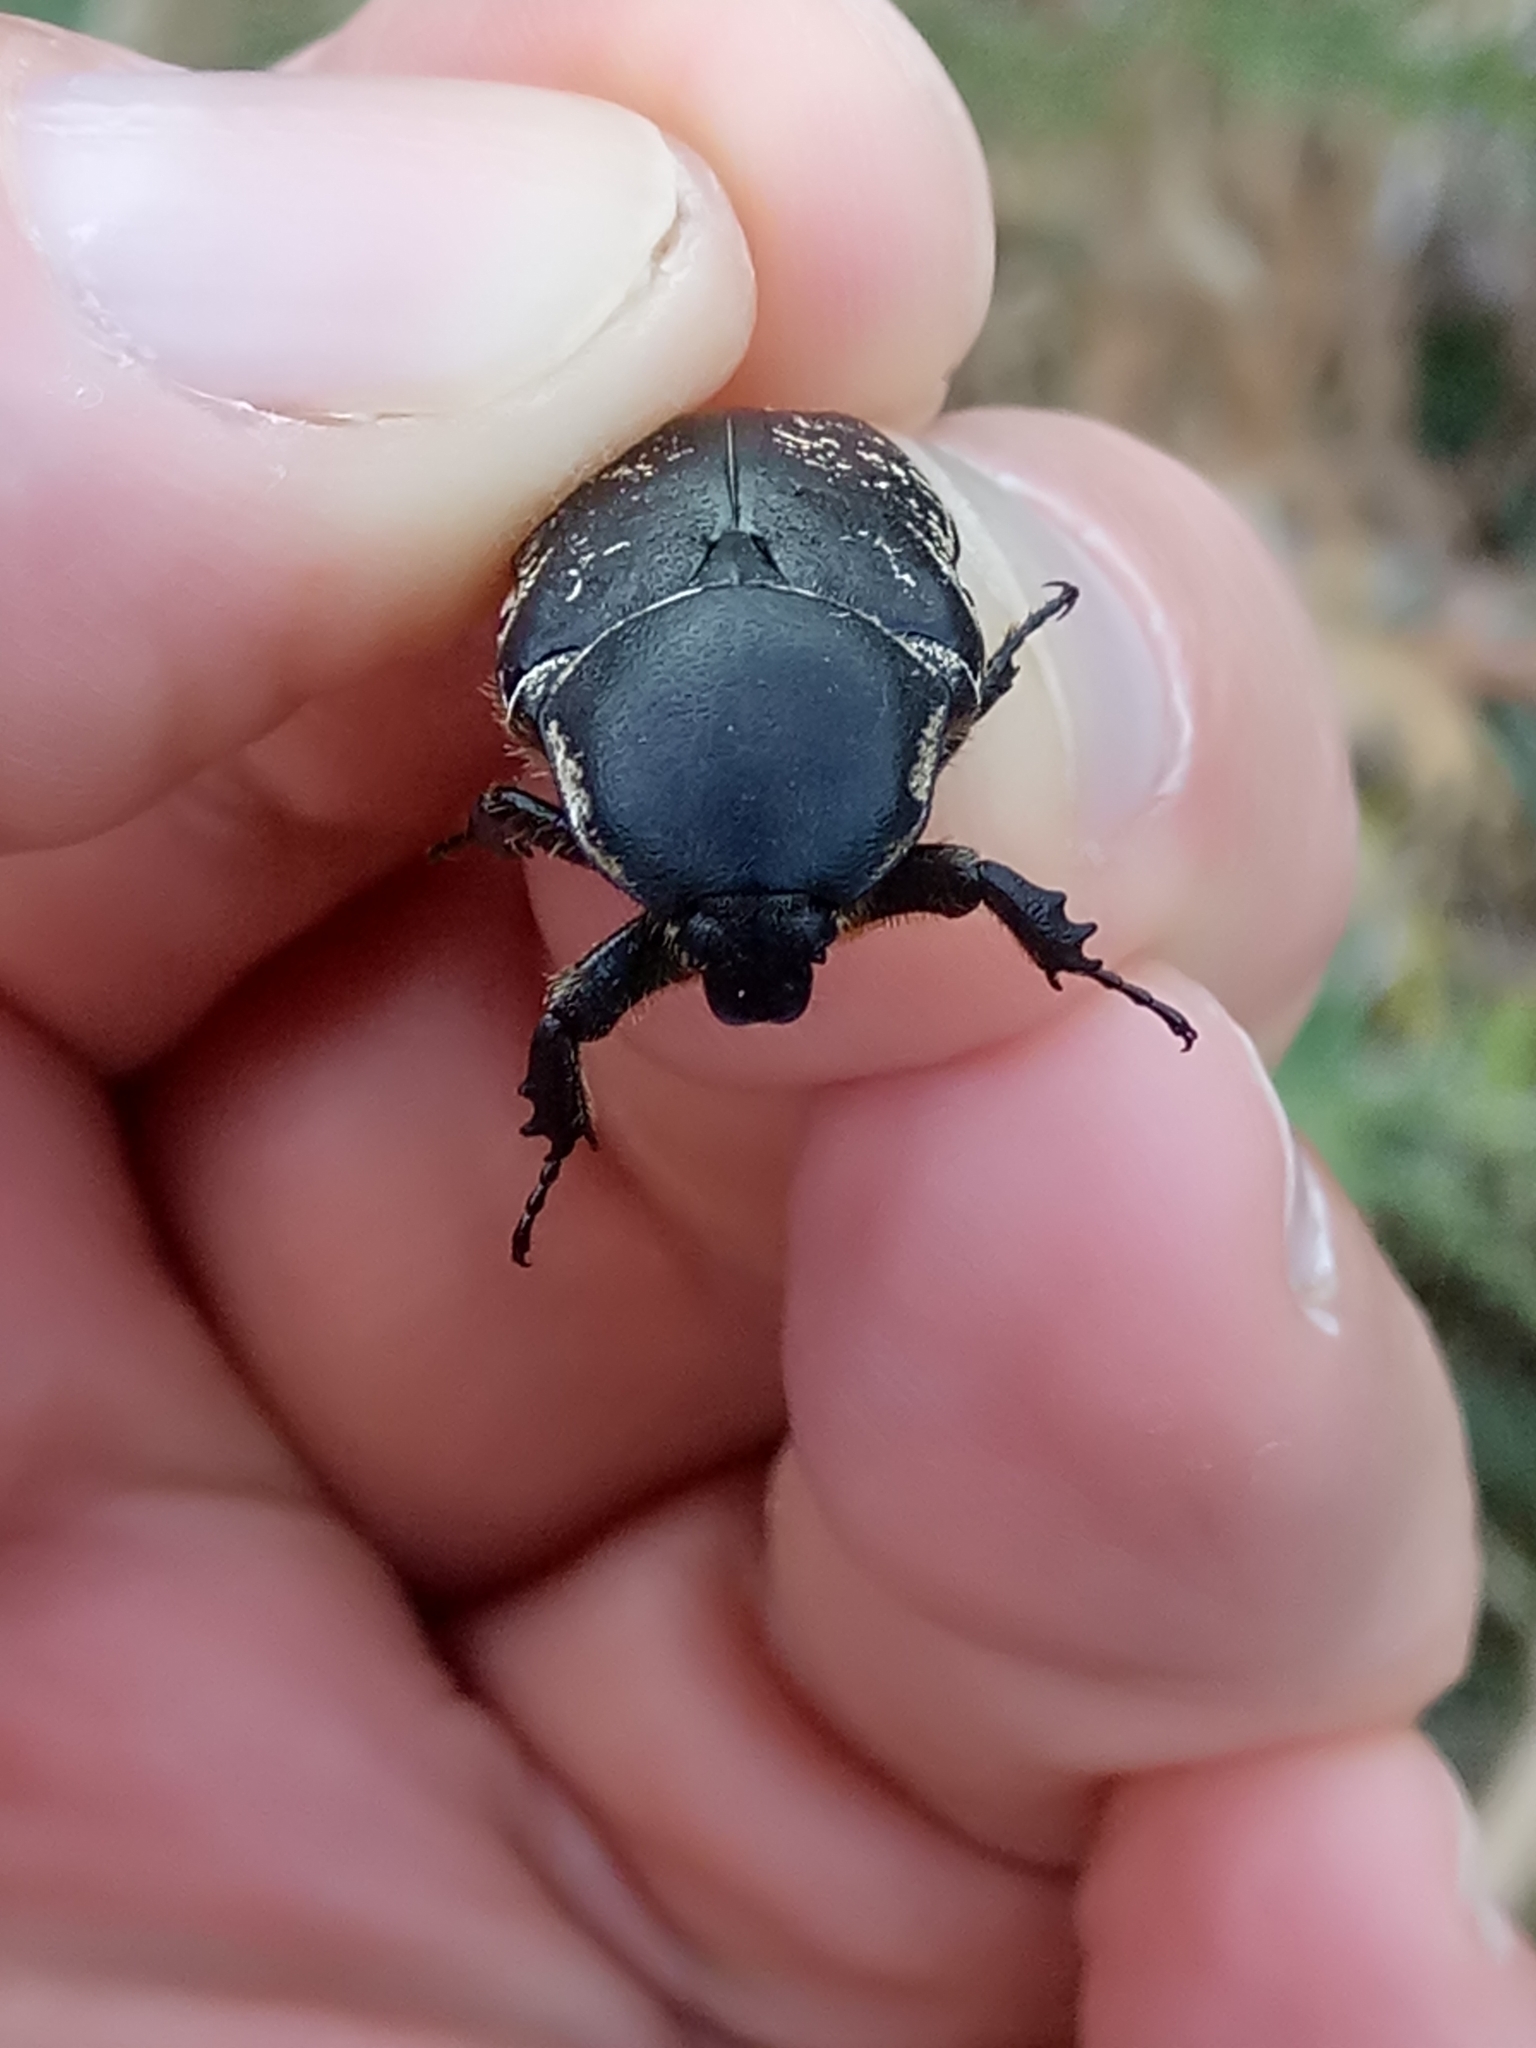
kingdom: Animalia
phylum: Arthropoda
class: Insecta
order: Coleoptera
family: Scarabaeidae
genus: Aethiessa
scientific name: Aethiessa floralis
